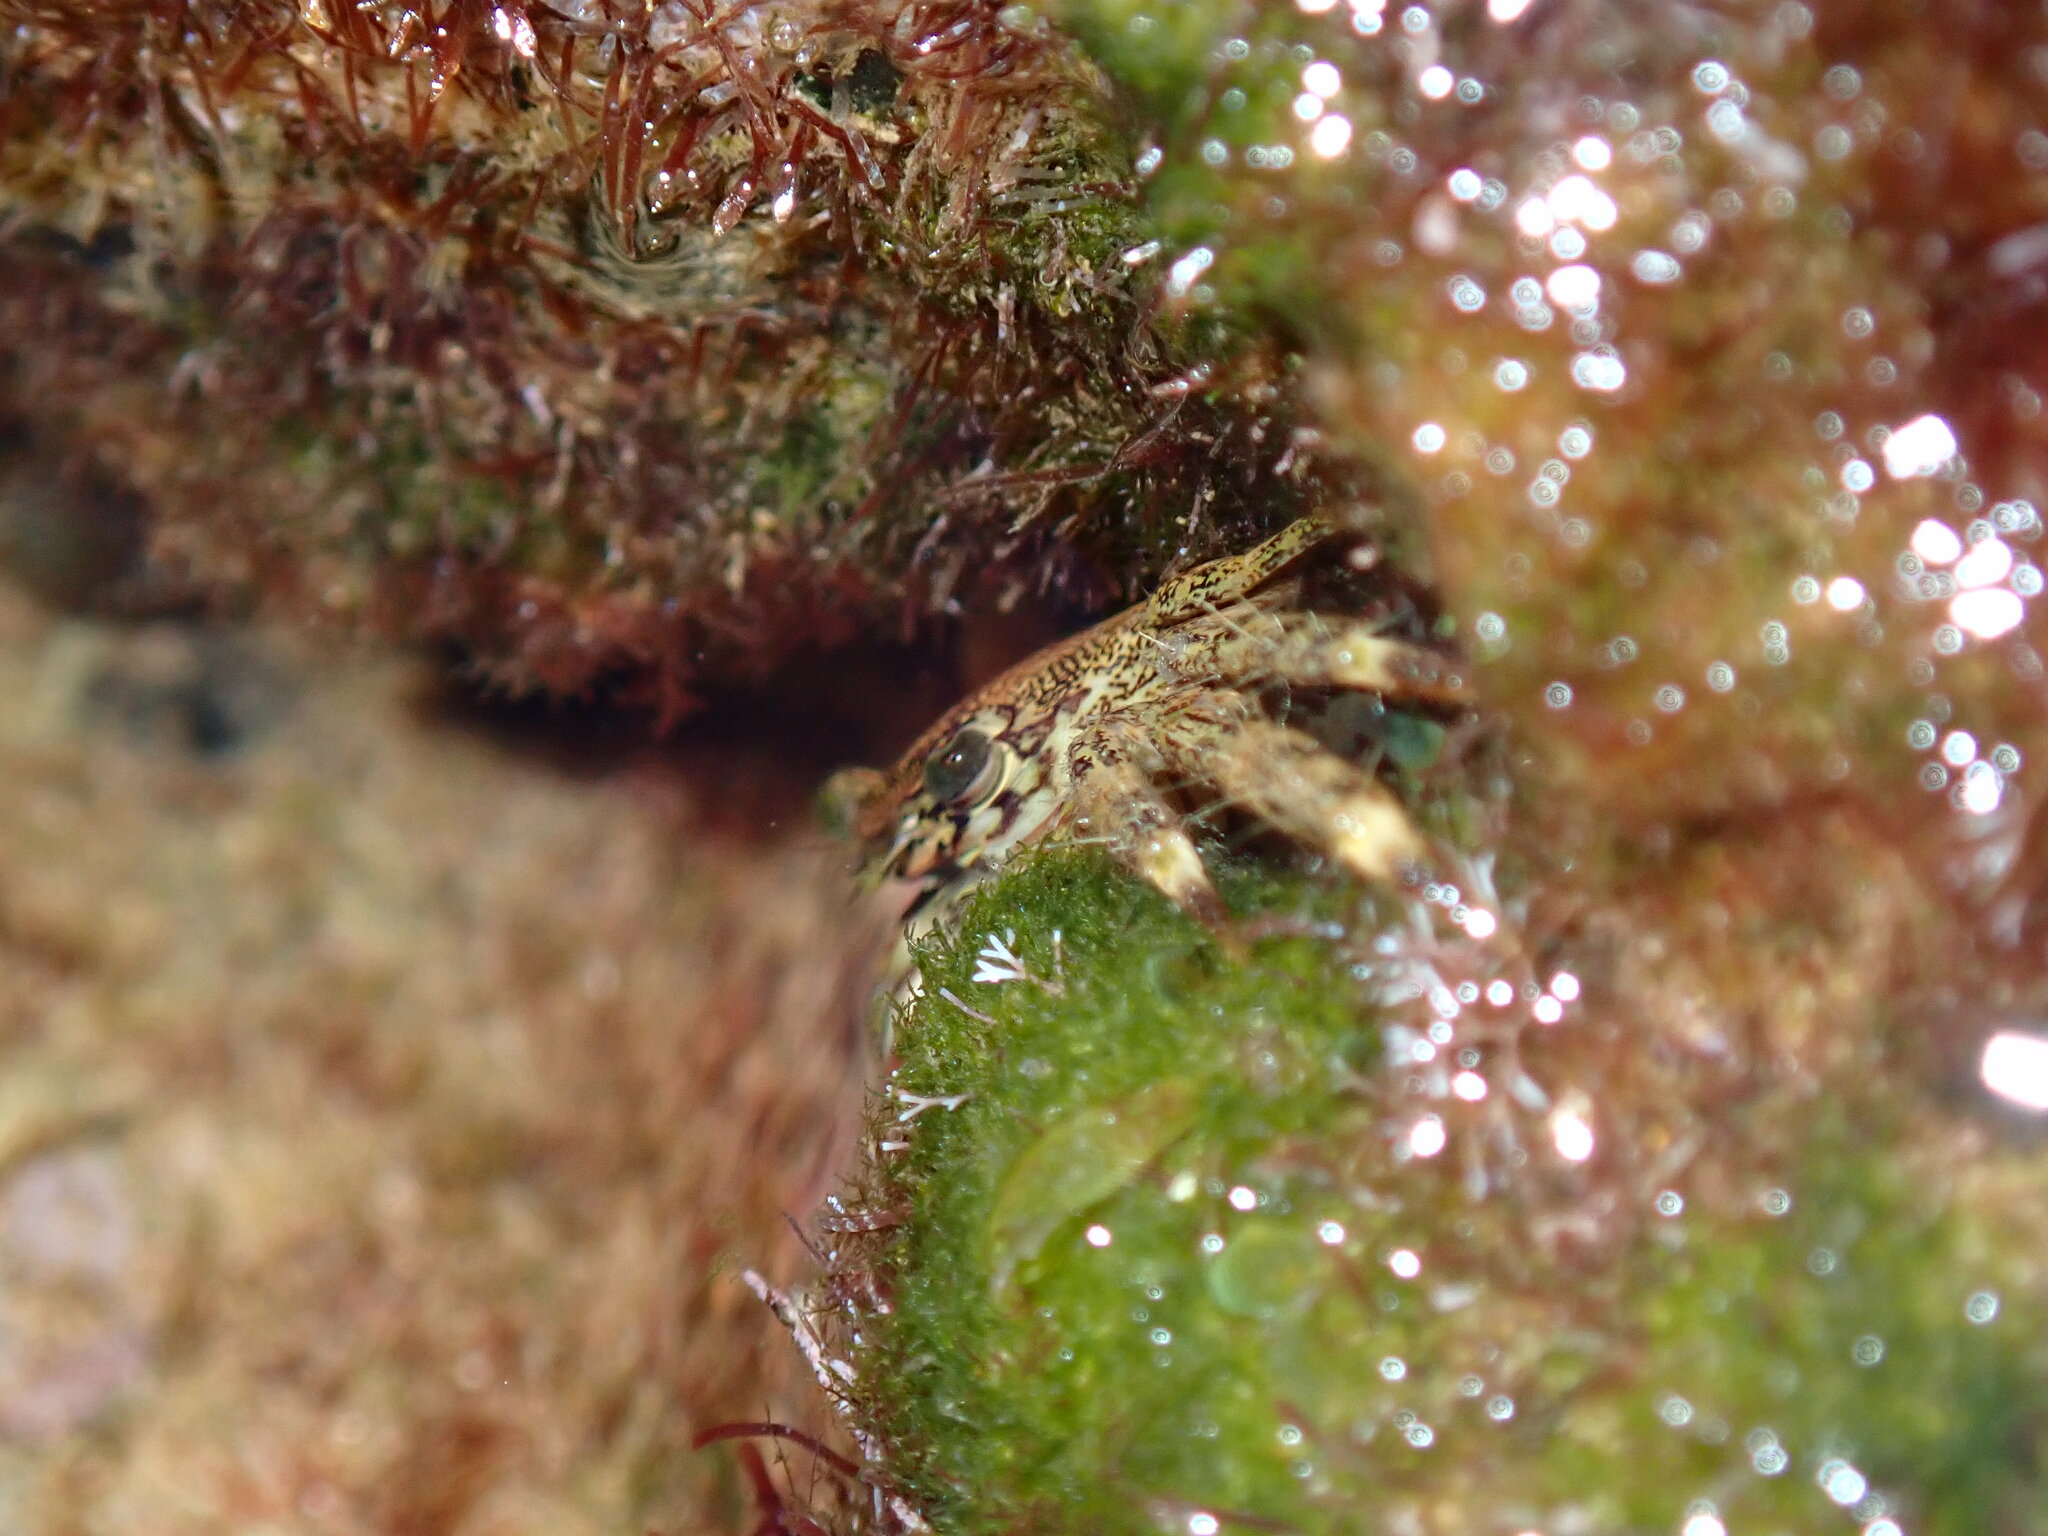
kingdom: Animalia
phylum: Arthropoda
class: Malacostraca
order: Decapoda
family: Grapsidae
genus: Pachygrapsus
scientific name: Pachygrapsus marmoratus
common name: Marbled rock crab
